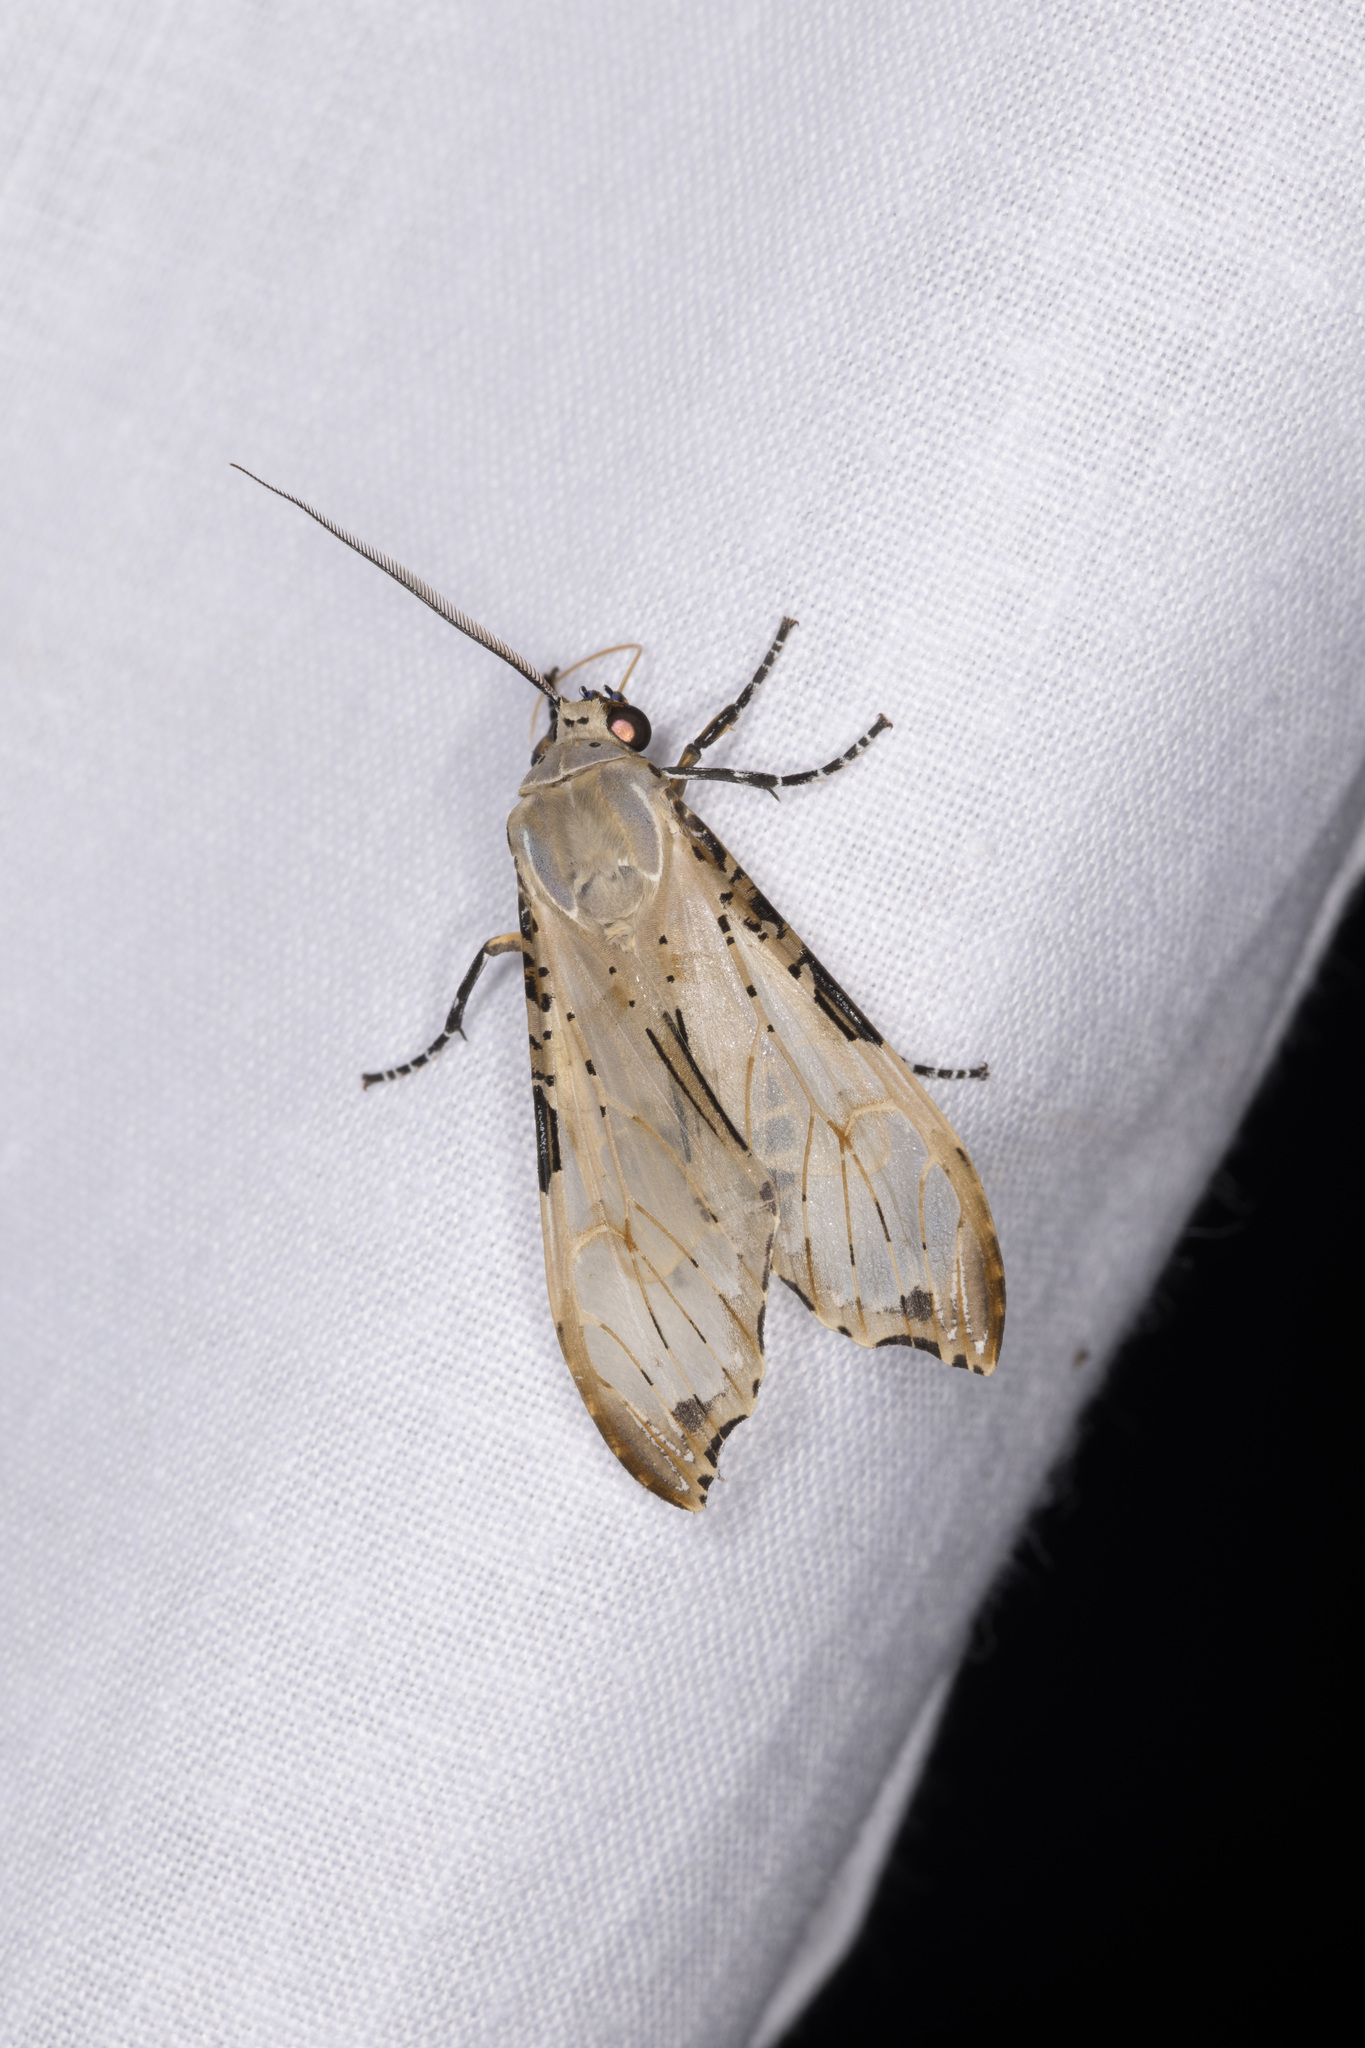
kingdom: Animalia
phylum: Arthropoda
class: Insecta
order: Lepidoptera
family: Erebidae
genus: Psychophasma
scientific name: Psychophasma erosa
